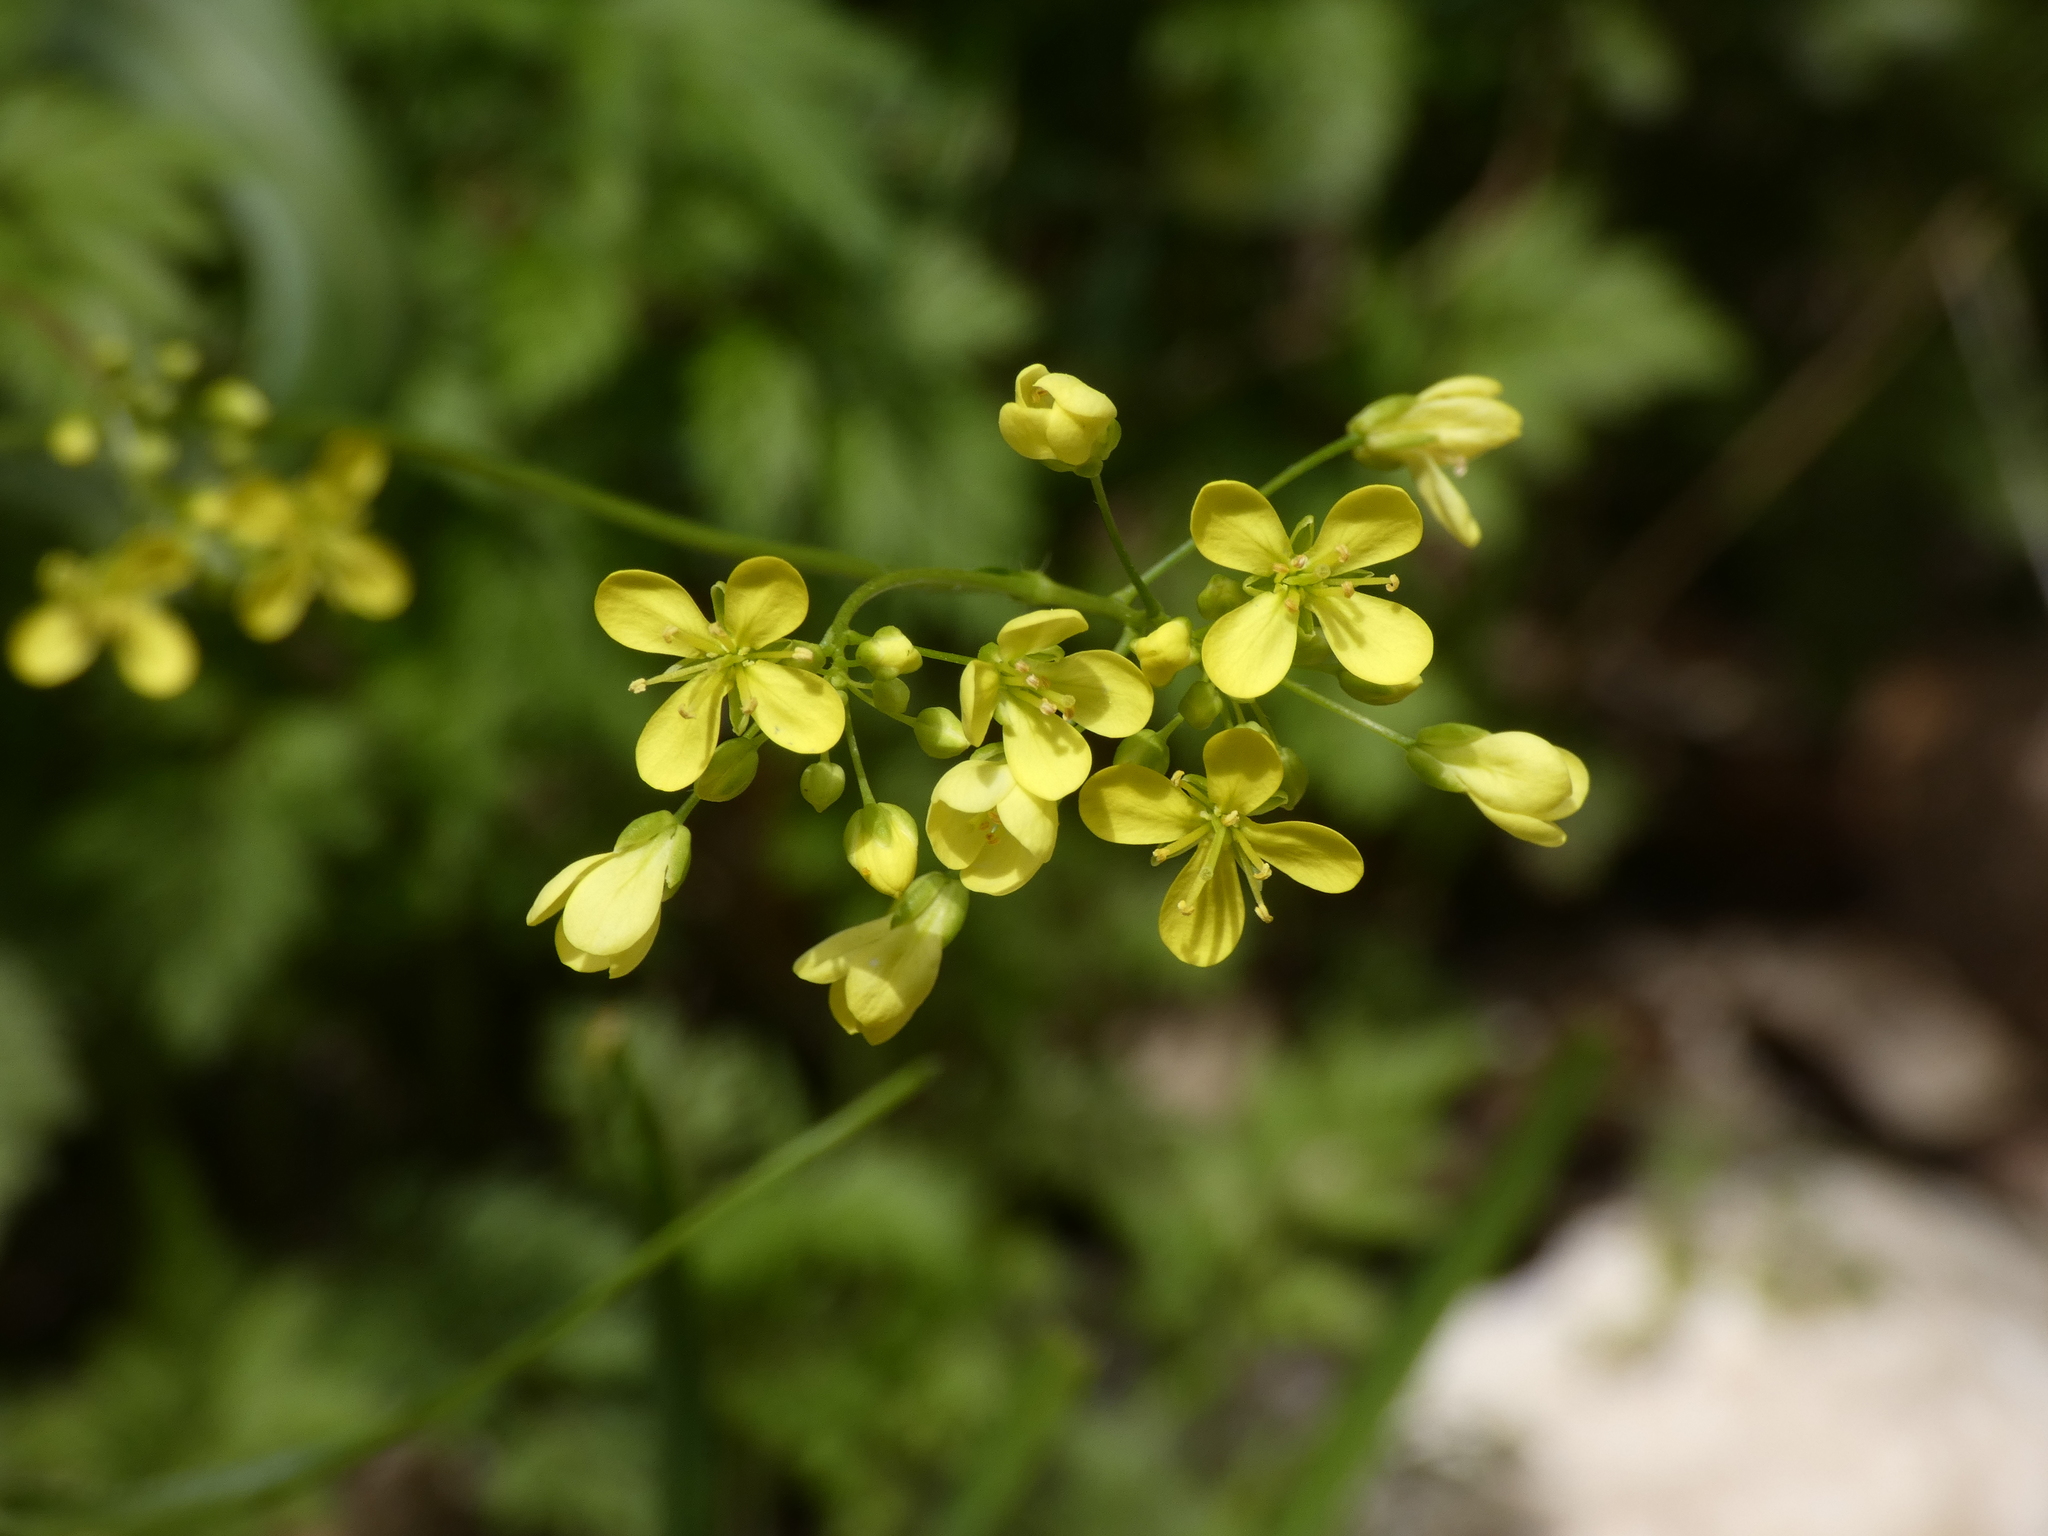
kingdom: Plantae
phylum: Tracheophyta
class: Magnoliopsida
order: Brassicales
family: Brassicaceae
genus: Biscutella
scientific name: Biscutella laevigata
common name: Buckler mustard
